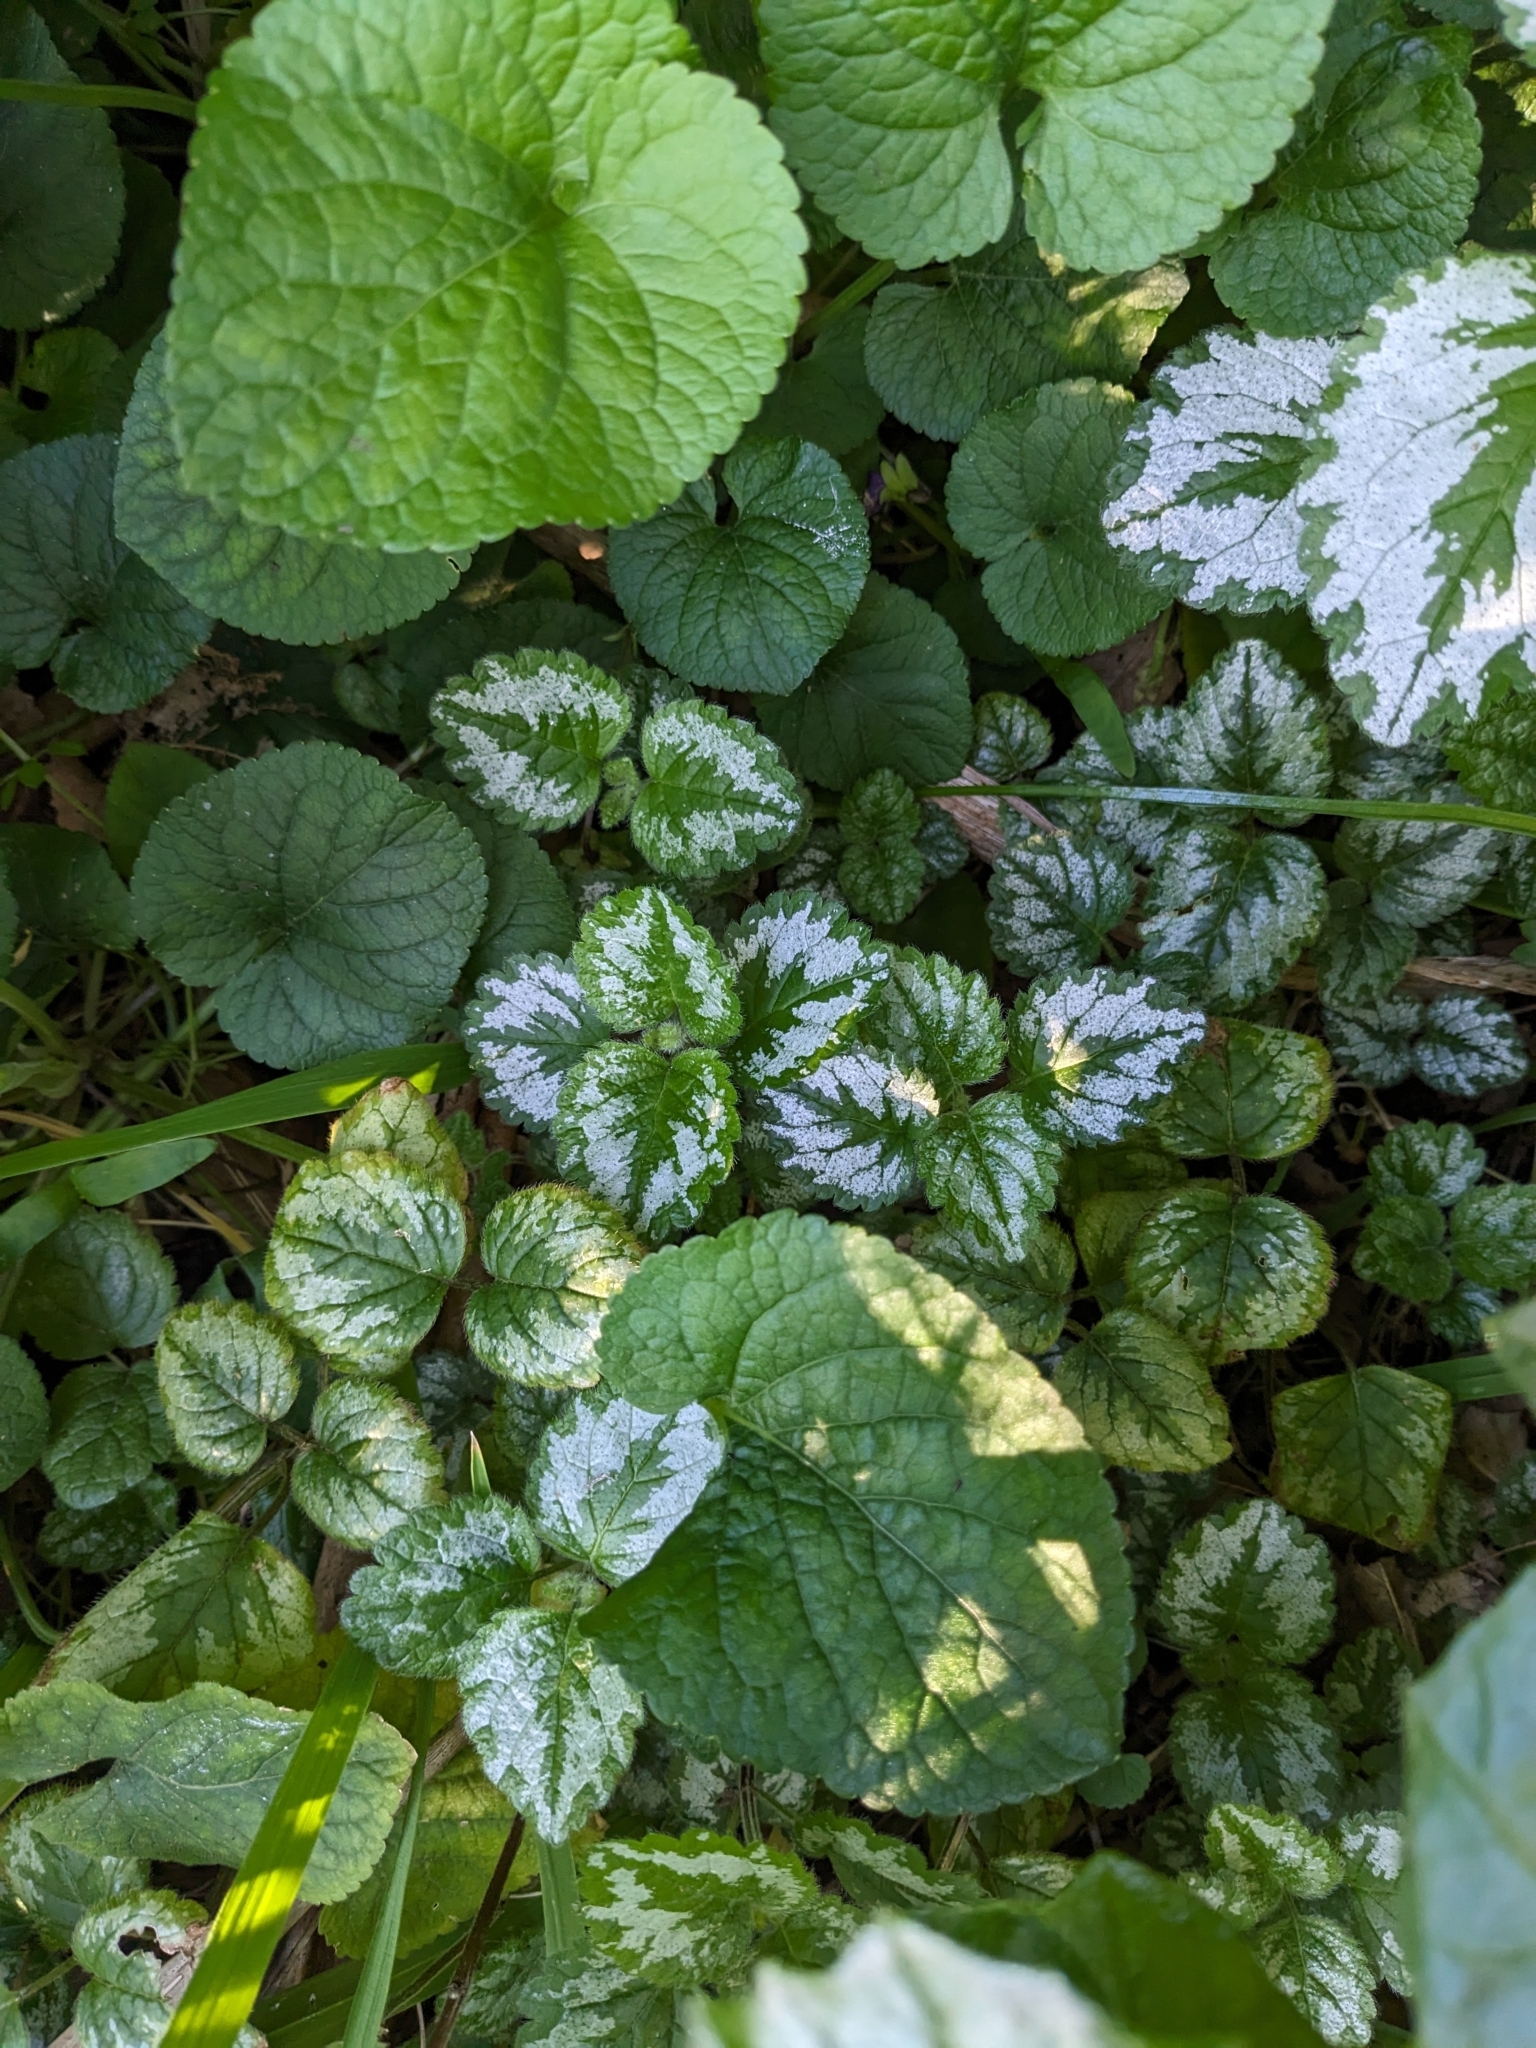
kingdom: Plantae
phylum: Tracheophyta
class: Magnoliopsida
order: Lamiales
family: Lamiaceae
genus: Lamium
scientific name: Lamium galeobdolon
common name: Yellow archangel
